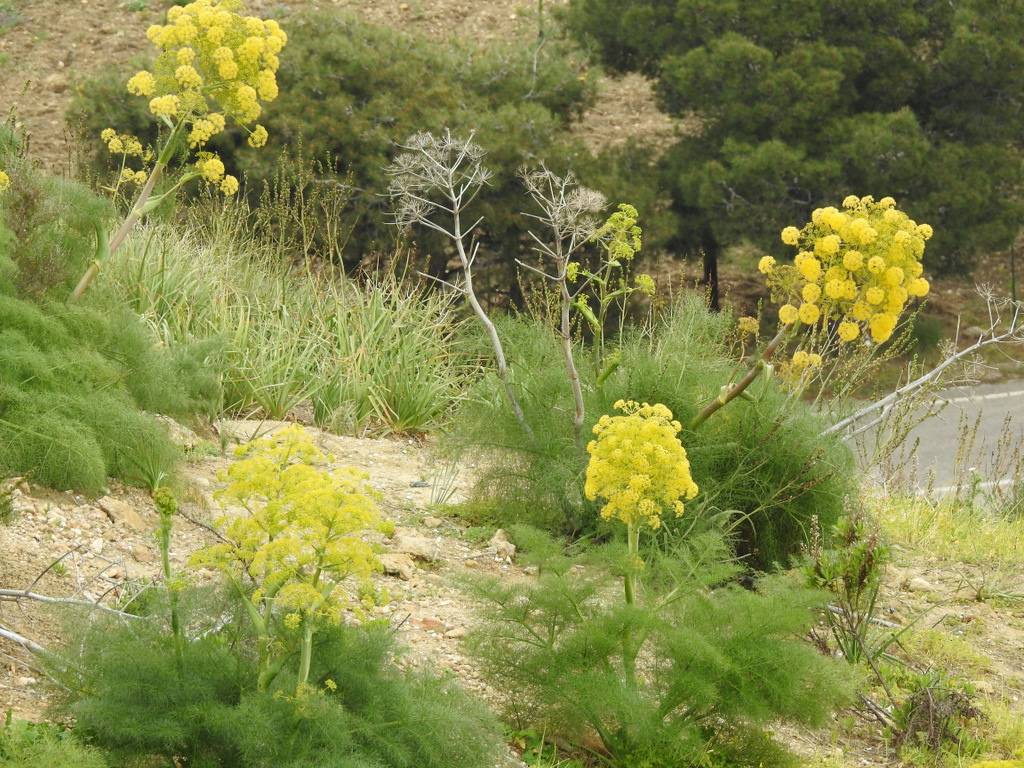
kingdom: Plantae
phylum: Tracheophyta
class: Magnoliopsida
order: Apiales
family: Apiaceae
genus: Ferula
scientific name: Ferula communis
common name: Giant fennel
